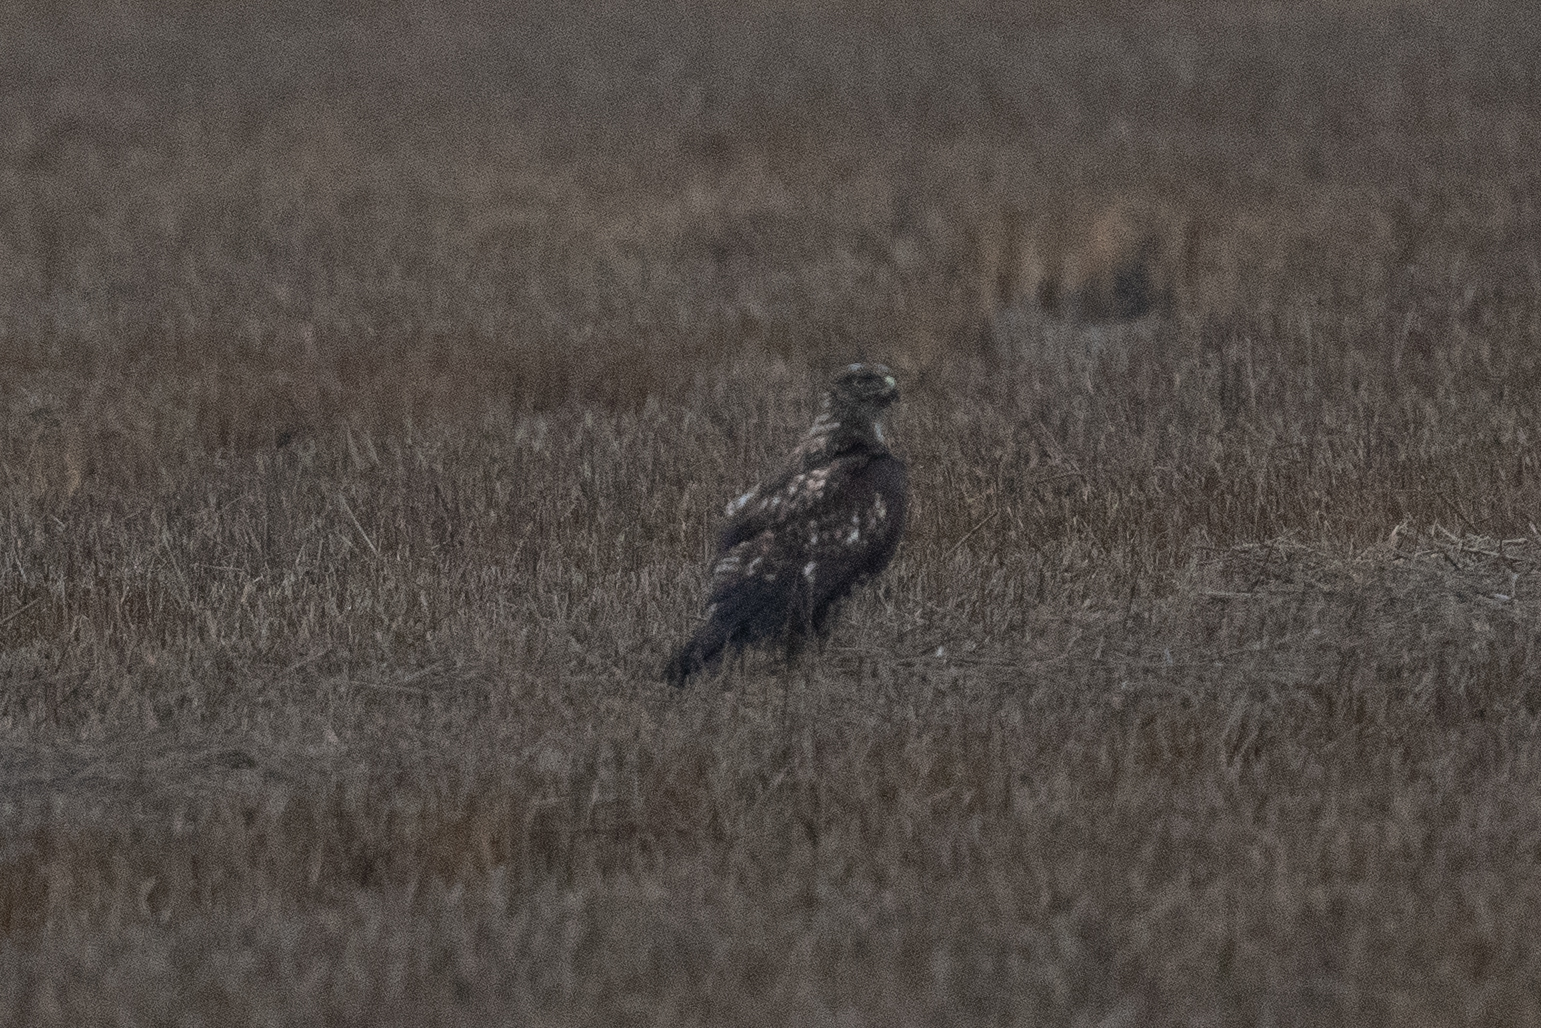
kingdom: Animalia
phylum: Chordata
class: Aves
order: Accipitriformes
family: Accipitridae
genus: Buteo
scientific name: Buteo jamaicensis
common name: Red-tailed hawk
